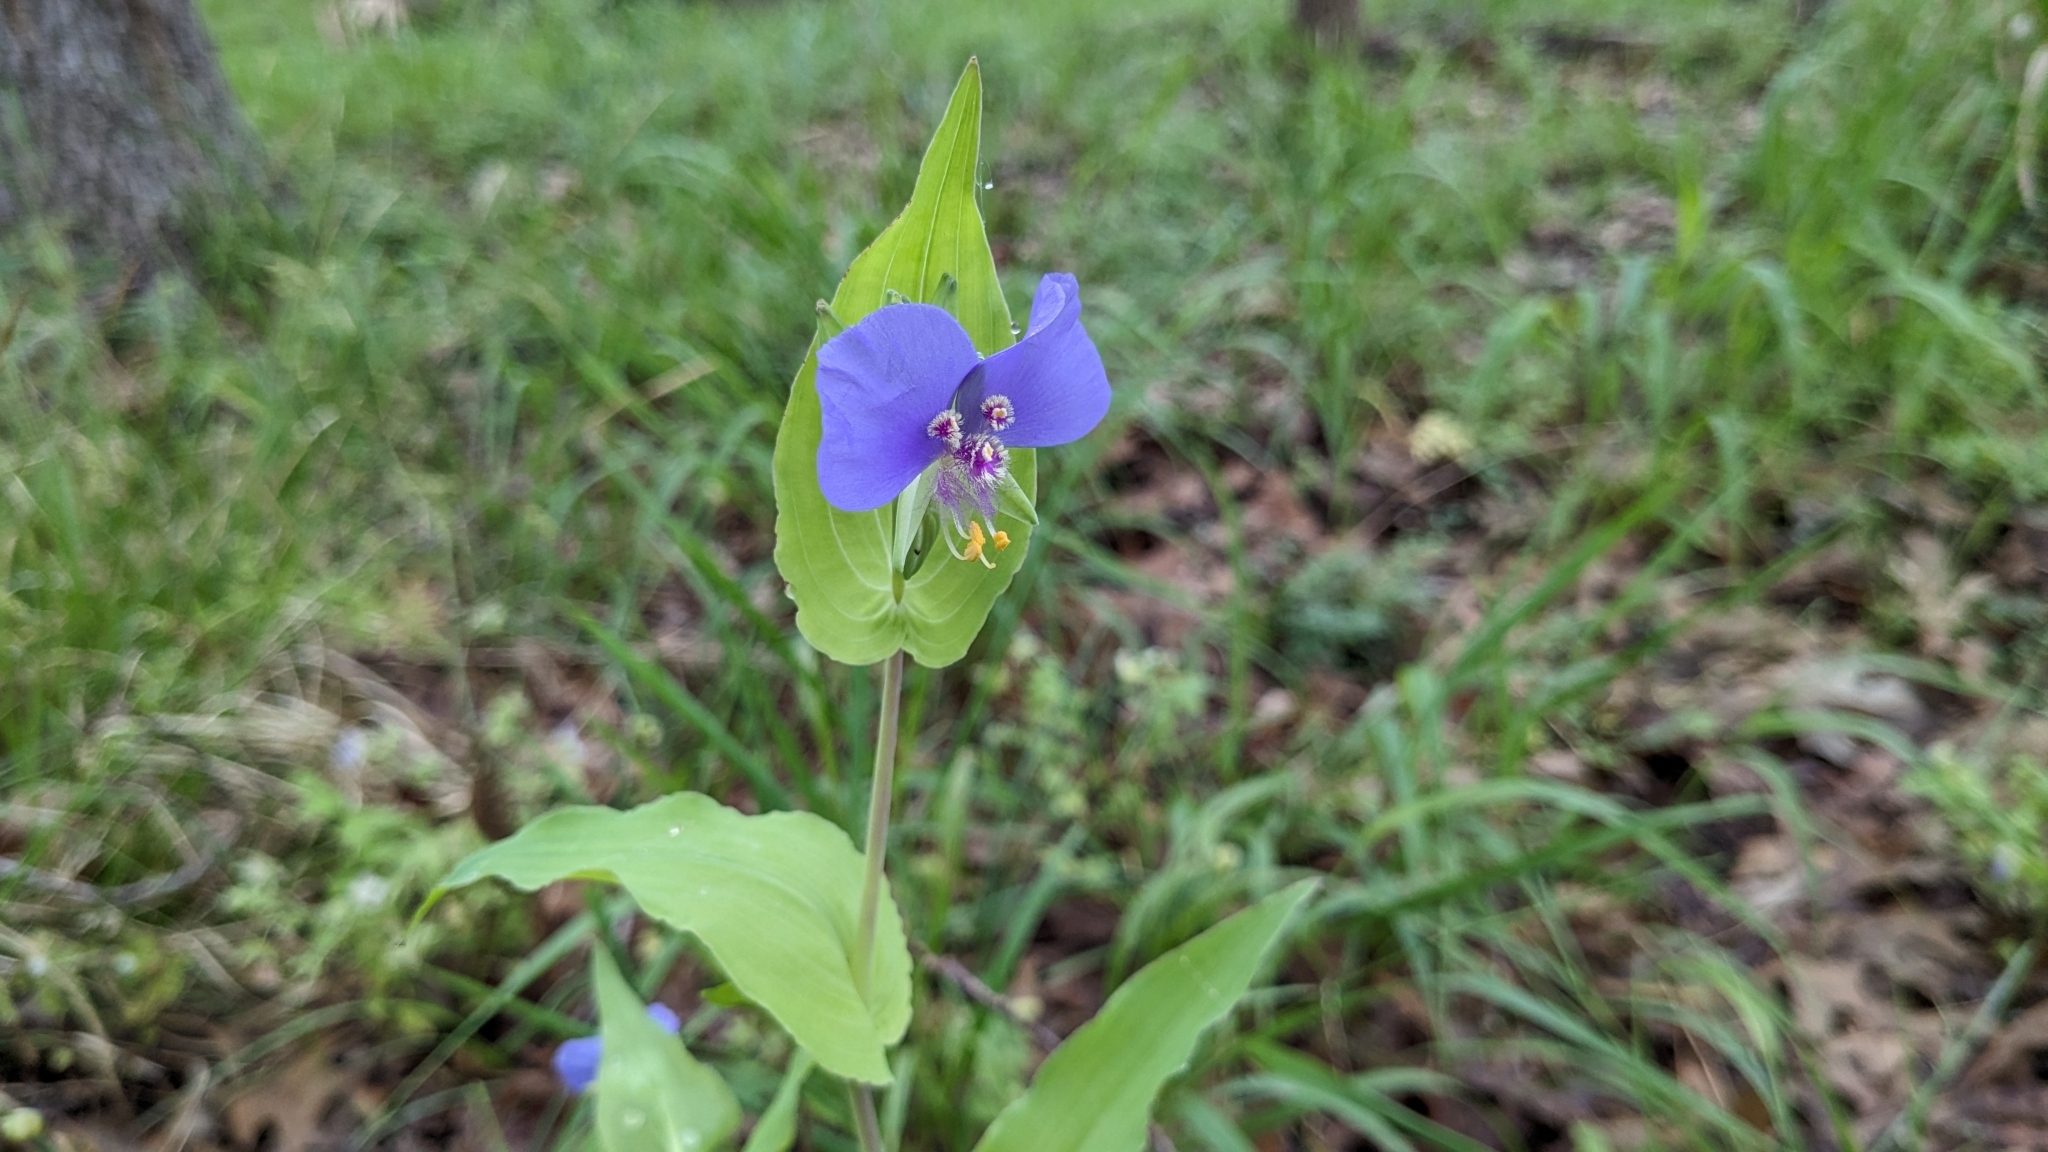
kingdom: Plantae
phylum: Tracheophyta
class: Liliopsida
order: Commelinales
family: Commelinaceae
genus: Tinantia
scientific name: Tinantia anomala
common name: False dayflower
